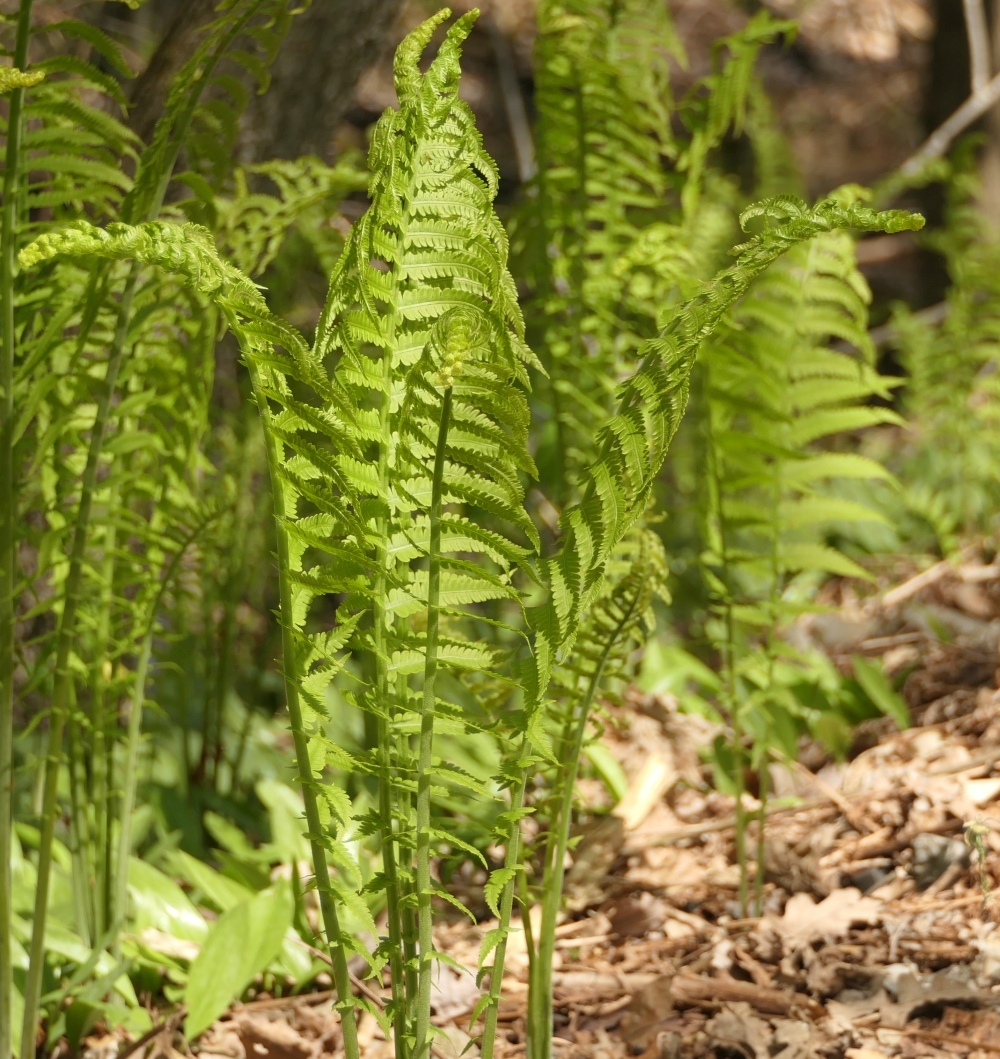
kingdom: Plantae
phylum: Tracheophyta
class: Polypodiopsida
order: Polypodiales
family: Onocleaceae
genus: Matteuccia
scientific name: Matteuccia struthiopteris
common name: Ostrich fern
